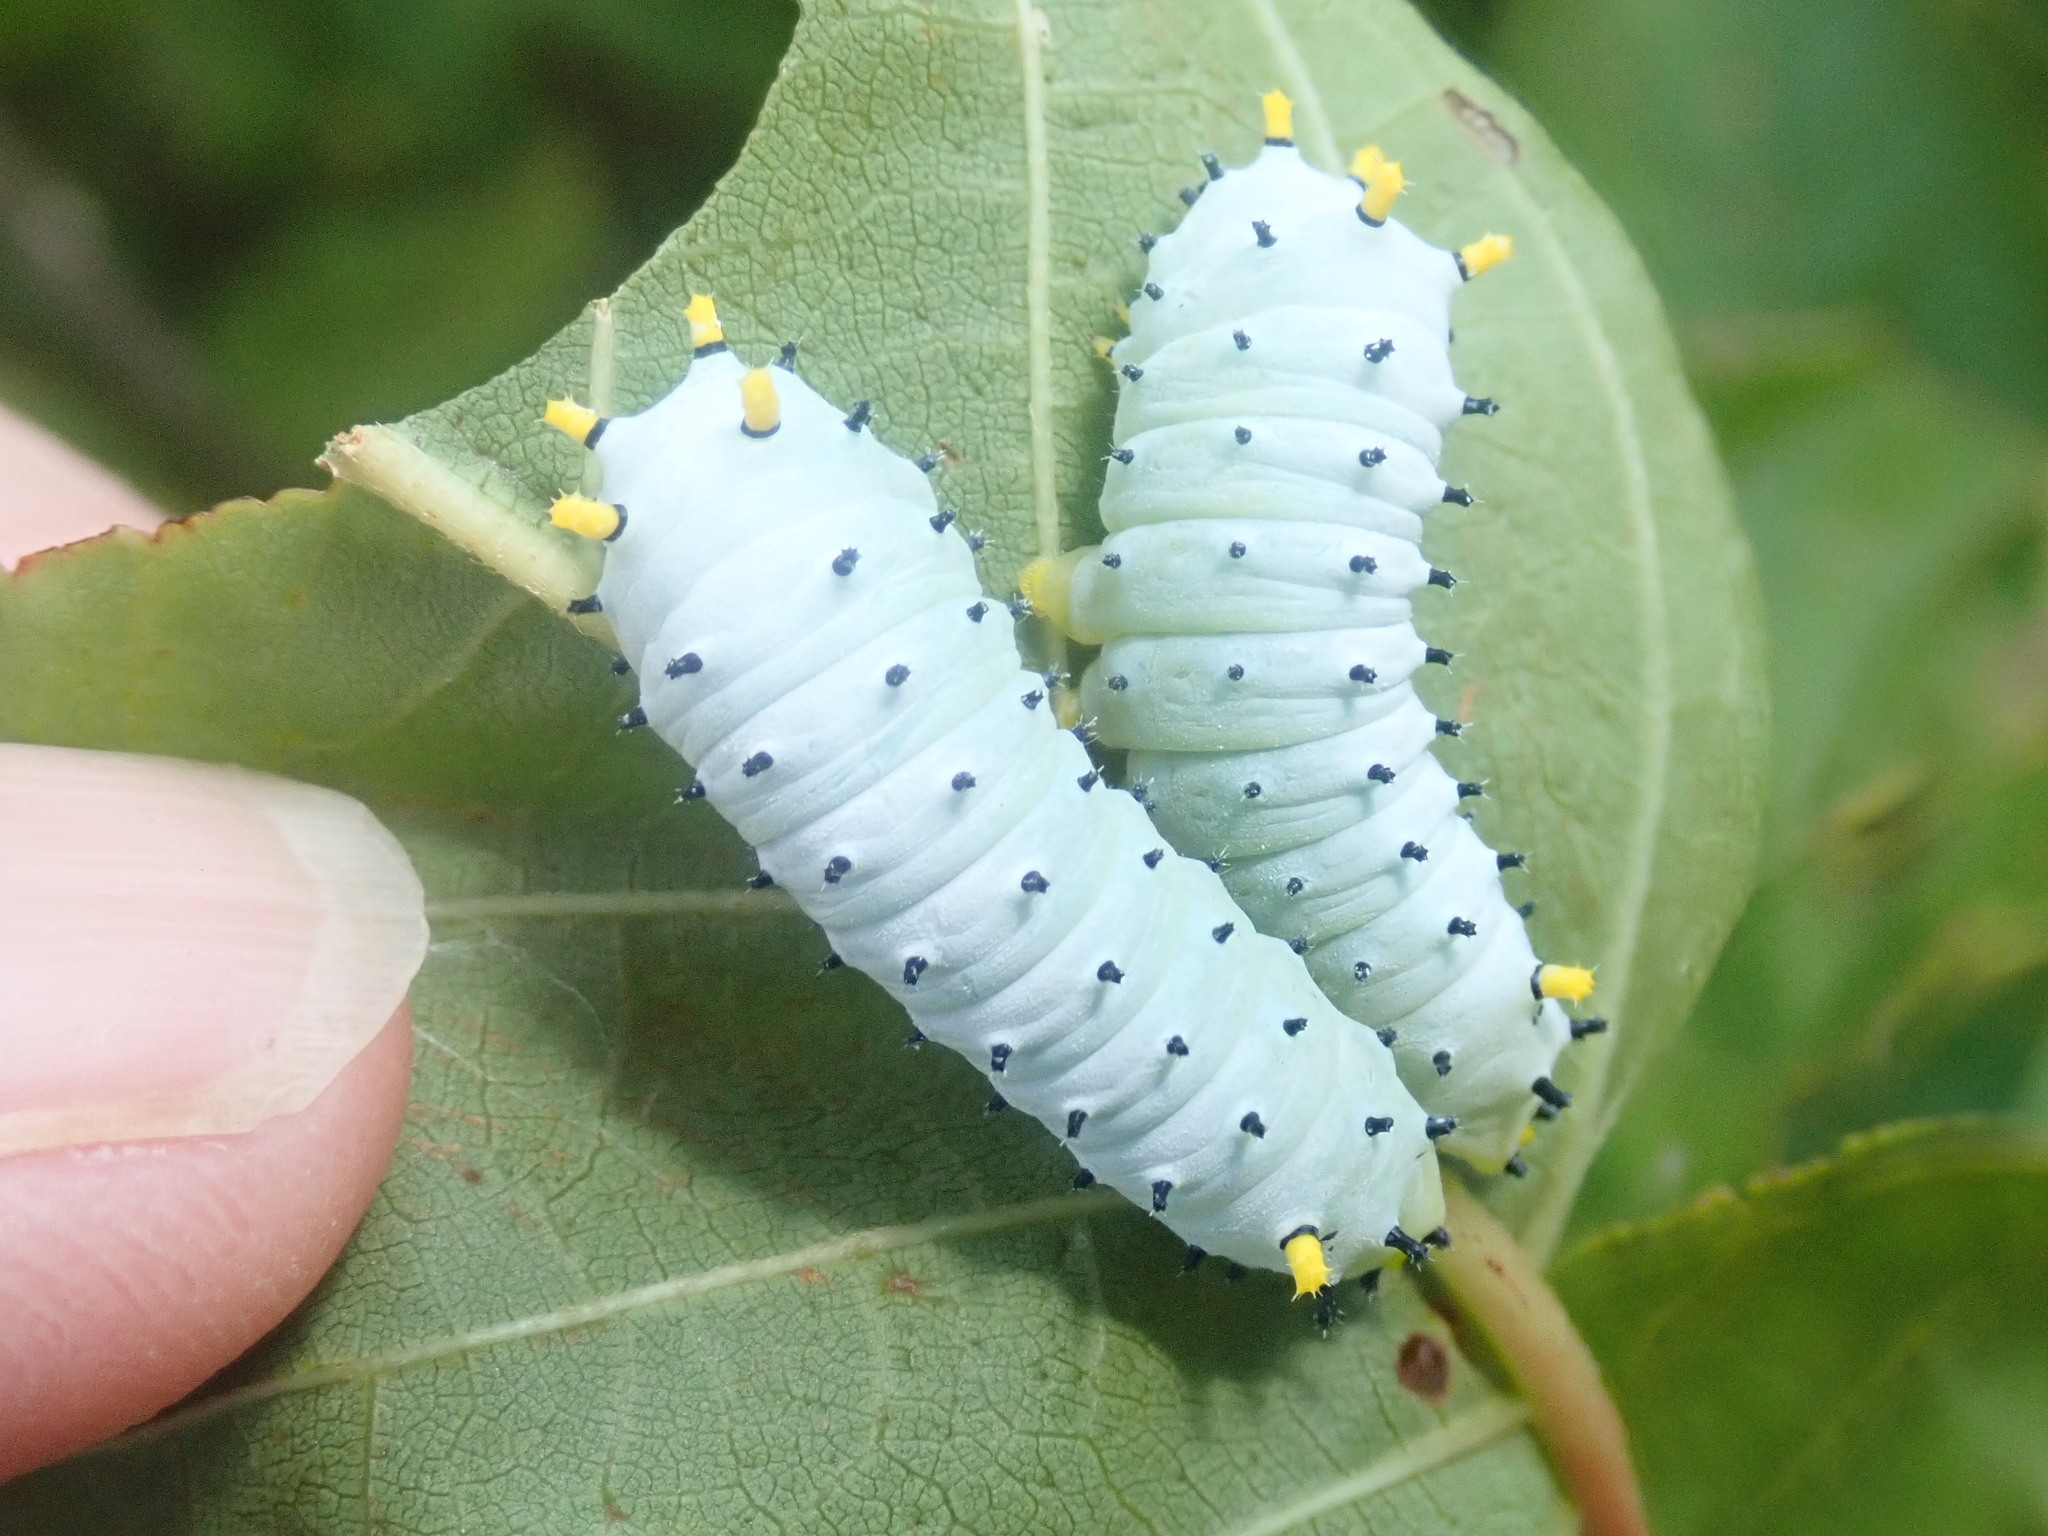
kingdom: Animalia
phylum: Arthropoda
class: Insecta
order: Lepidoptera
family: Saturniidae
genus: Callosamia
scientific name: Callosamia promethea
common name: Promethea silkmoth
